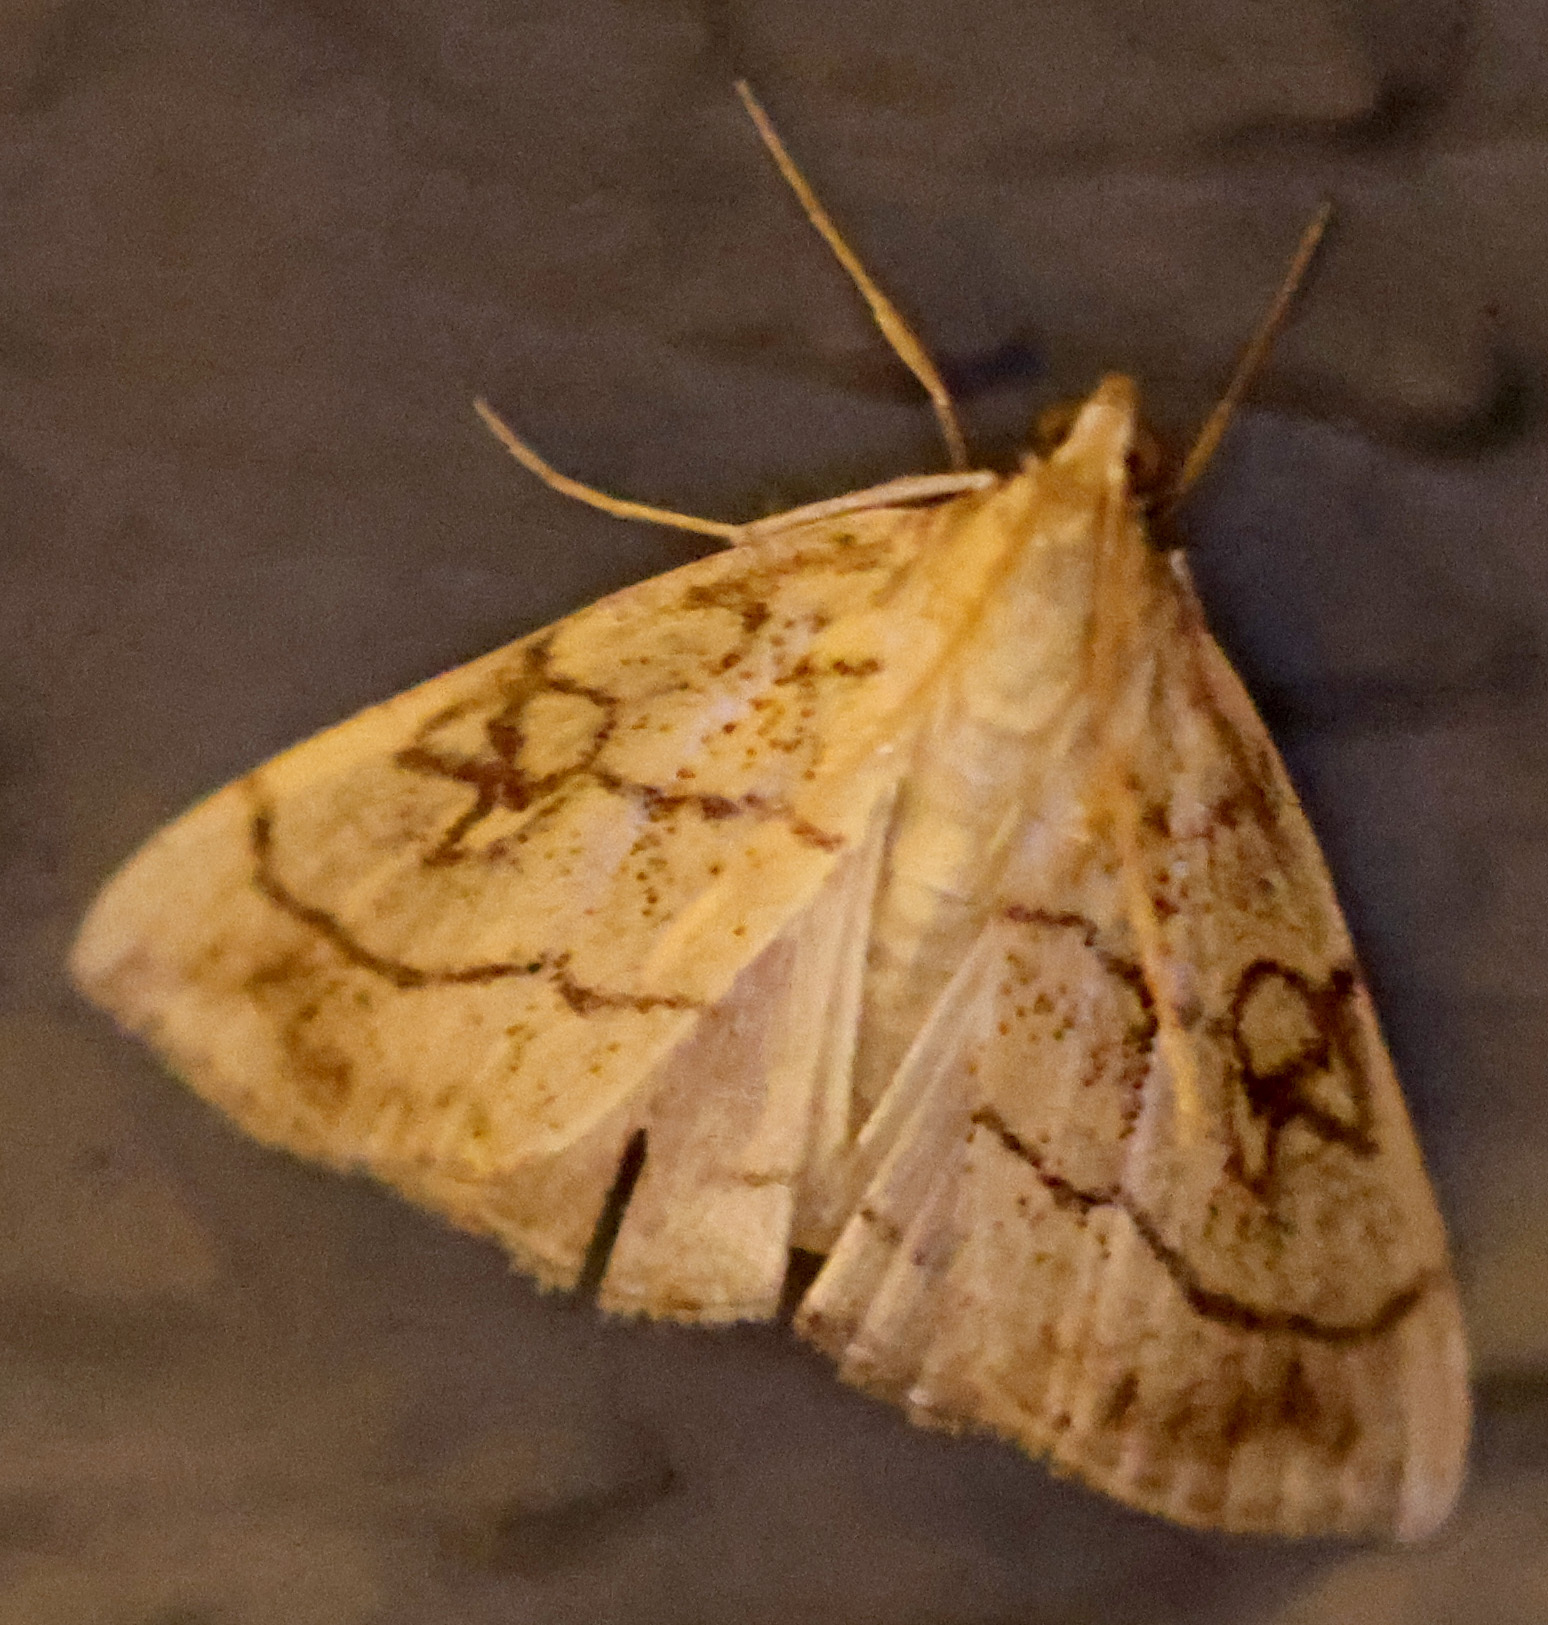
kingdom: Animalia
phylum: Arthropoda
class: Insecta
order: Lepidoptera
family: Crambidae
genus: Evergestis
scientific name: Evergestis pallidata
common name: Chequered pearl
